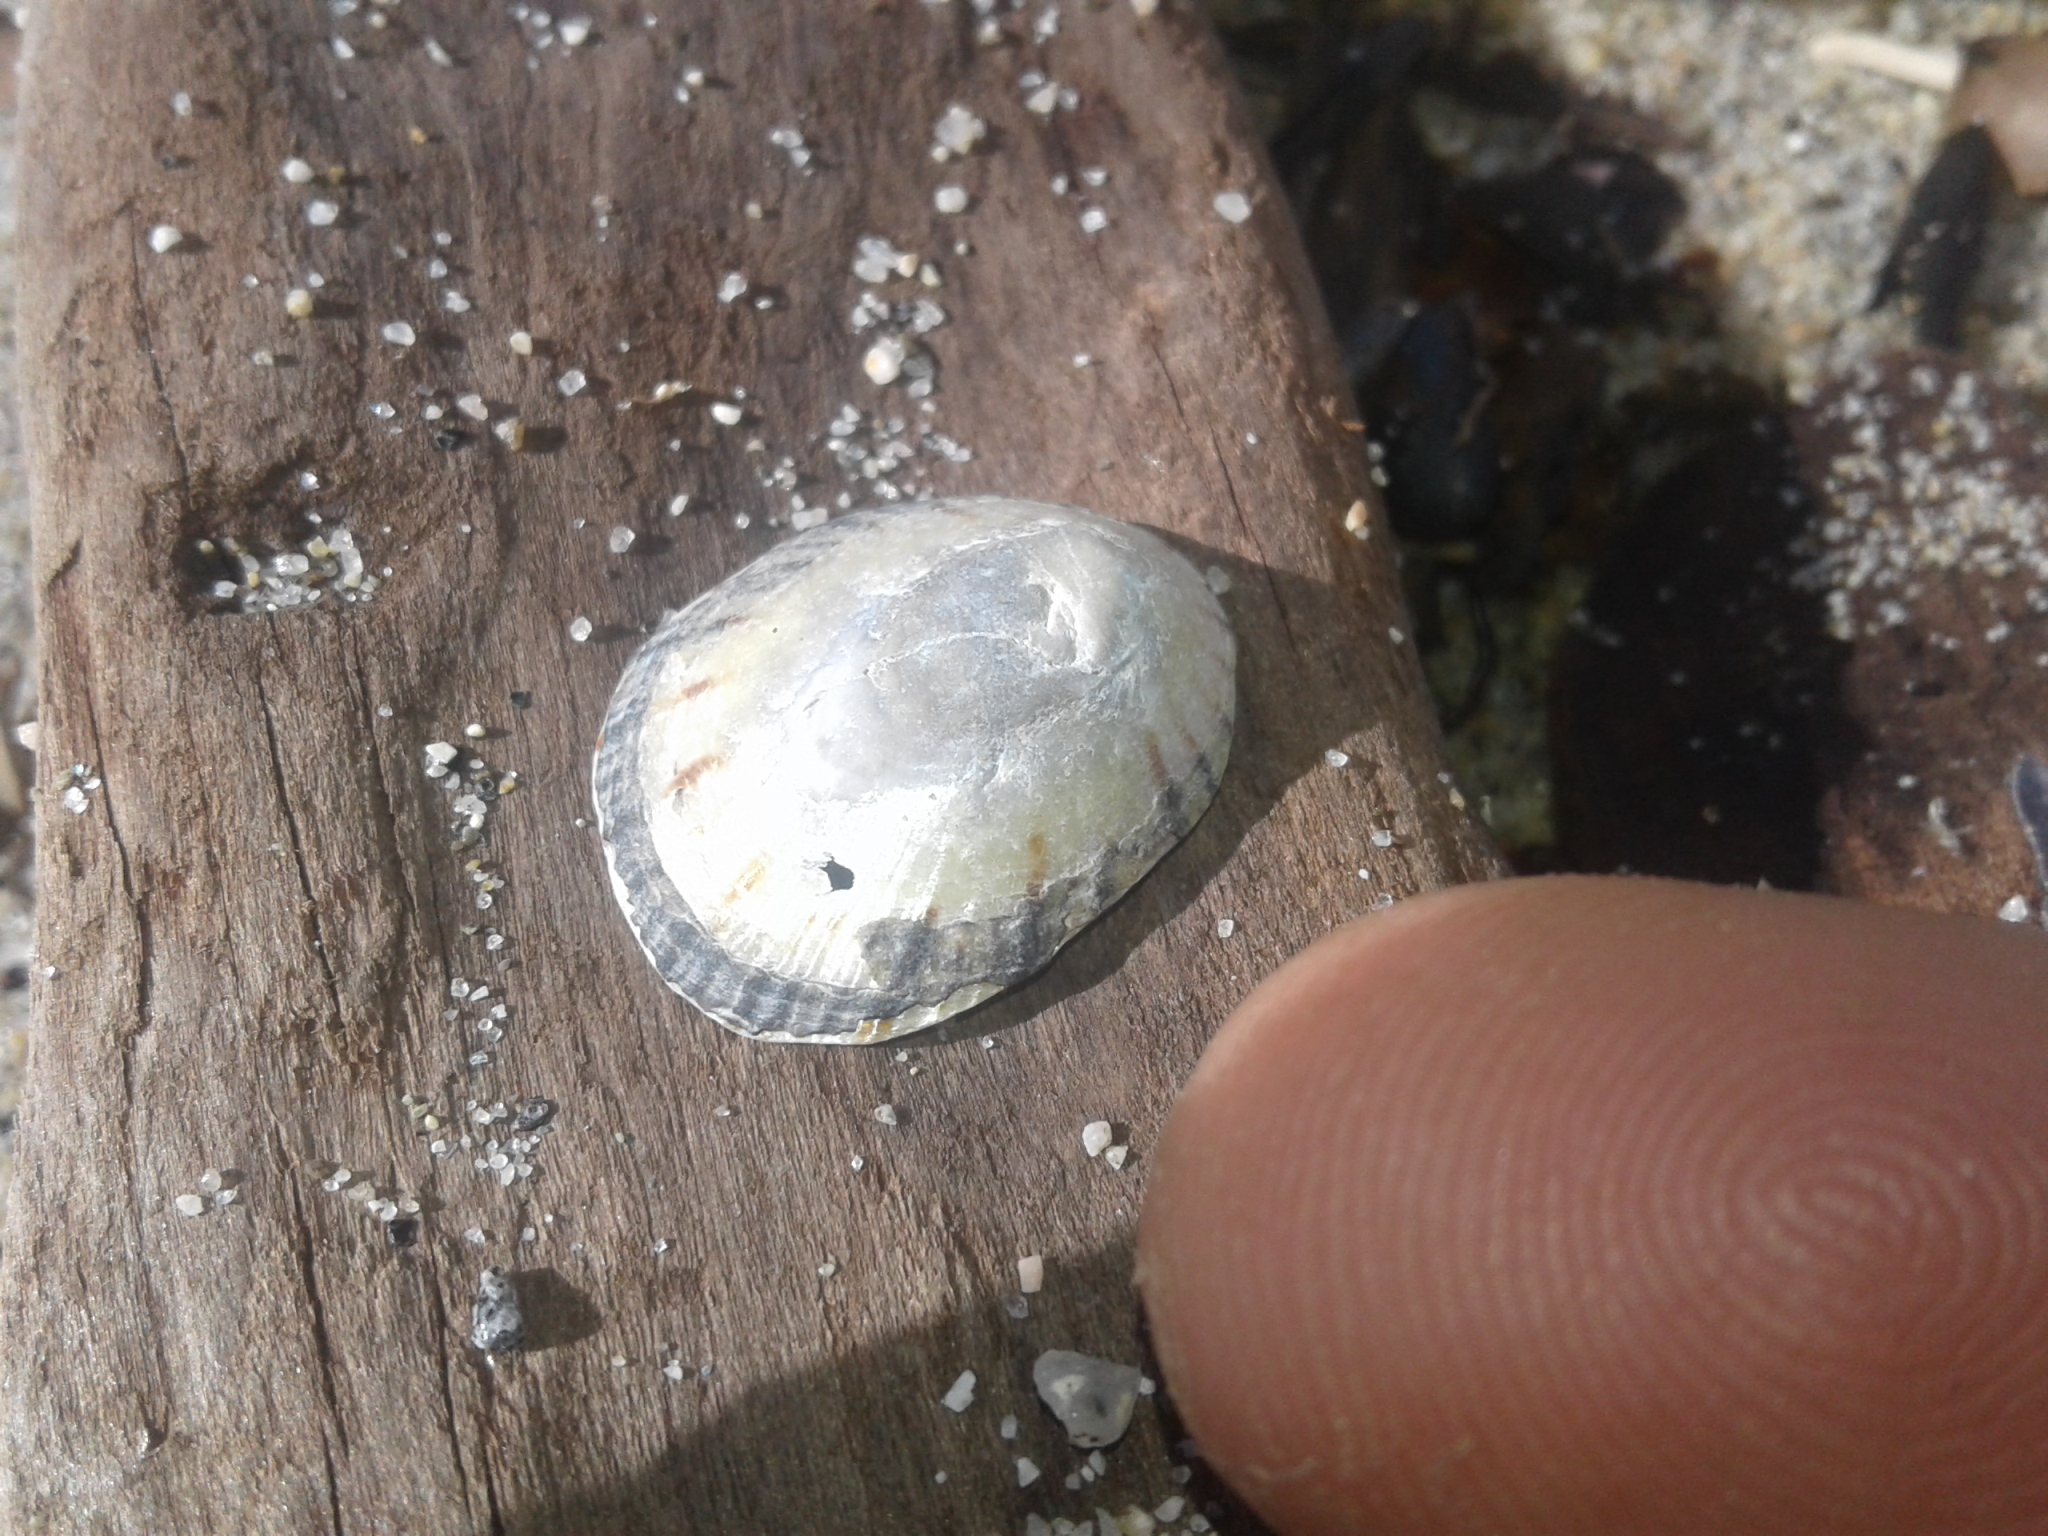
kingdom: Animalia
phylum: Mollusca
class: Gastropoda
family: Nacellidae
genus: Cellana
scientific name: Cellana radians
